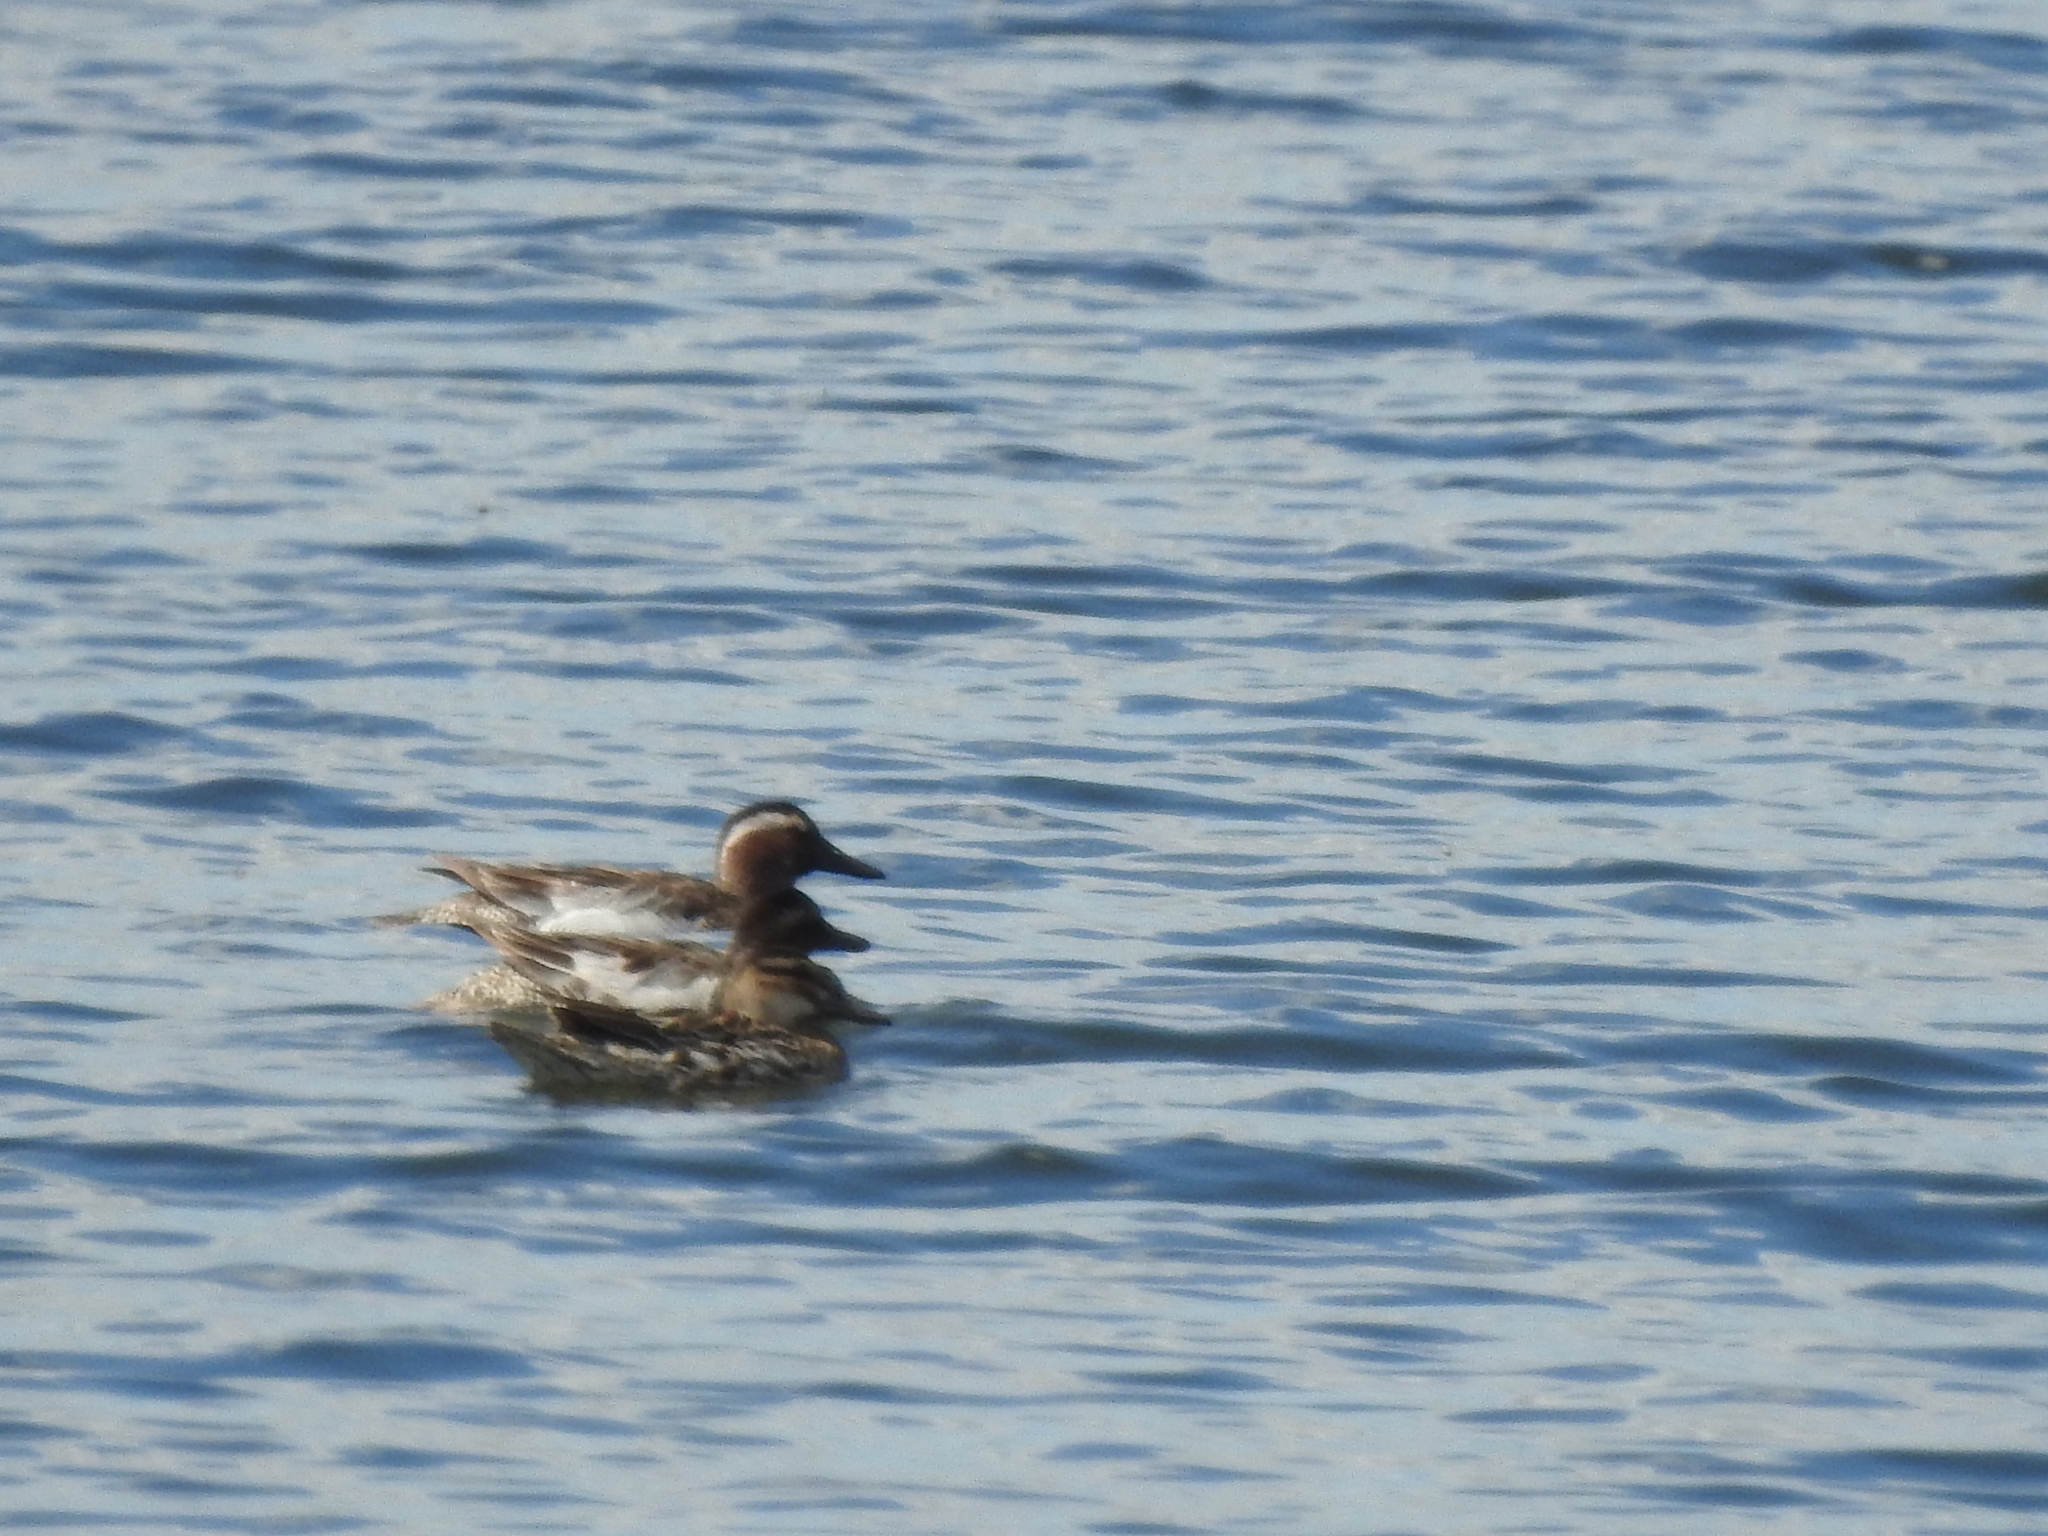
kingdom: Animalia
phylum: Chordata
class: Aves
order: Anseriformes
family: Anatidae
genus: Spatula
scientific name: Spatula querquedula
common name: Garganey
